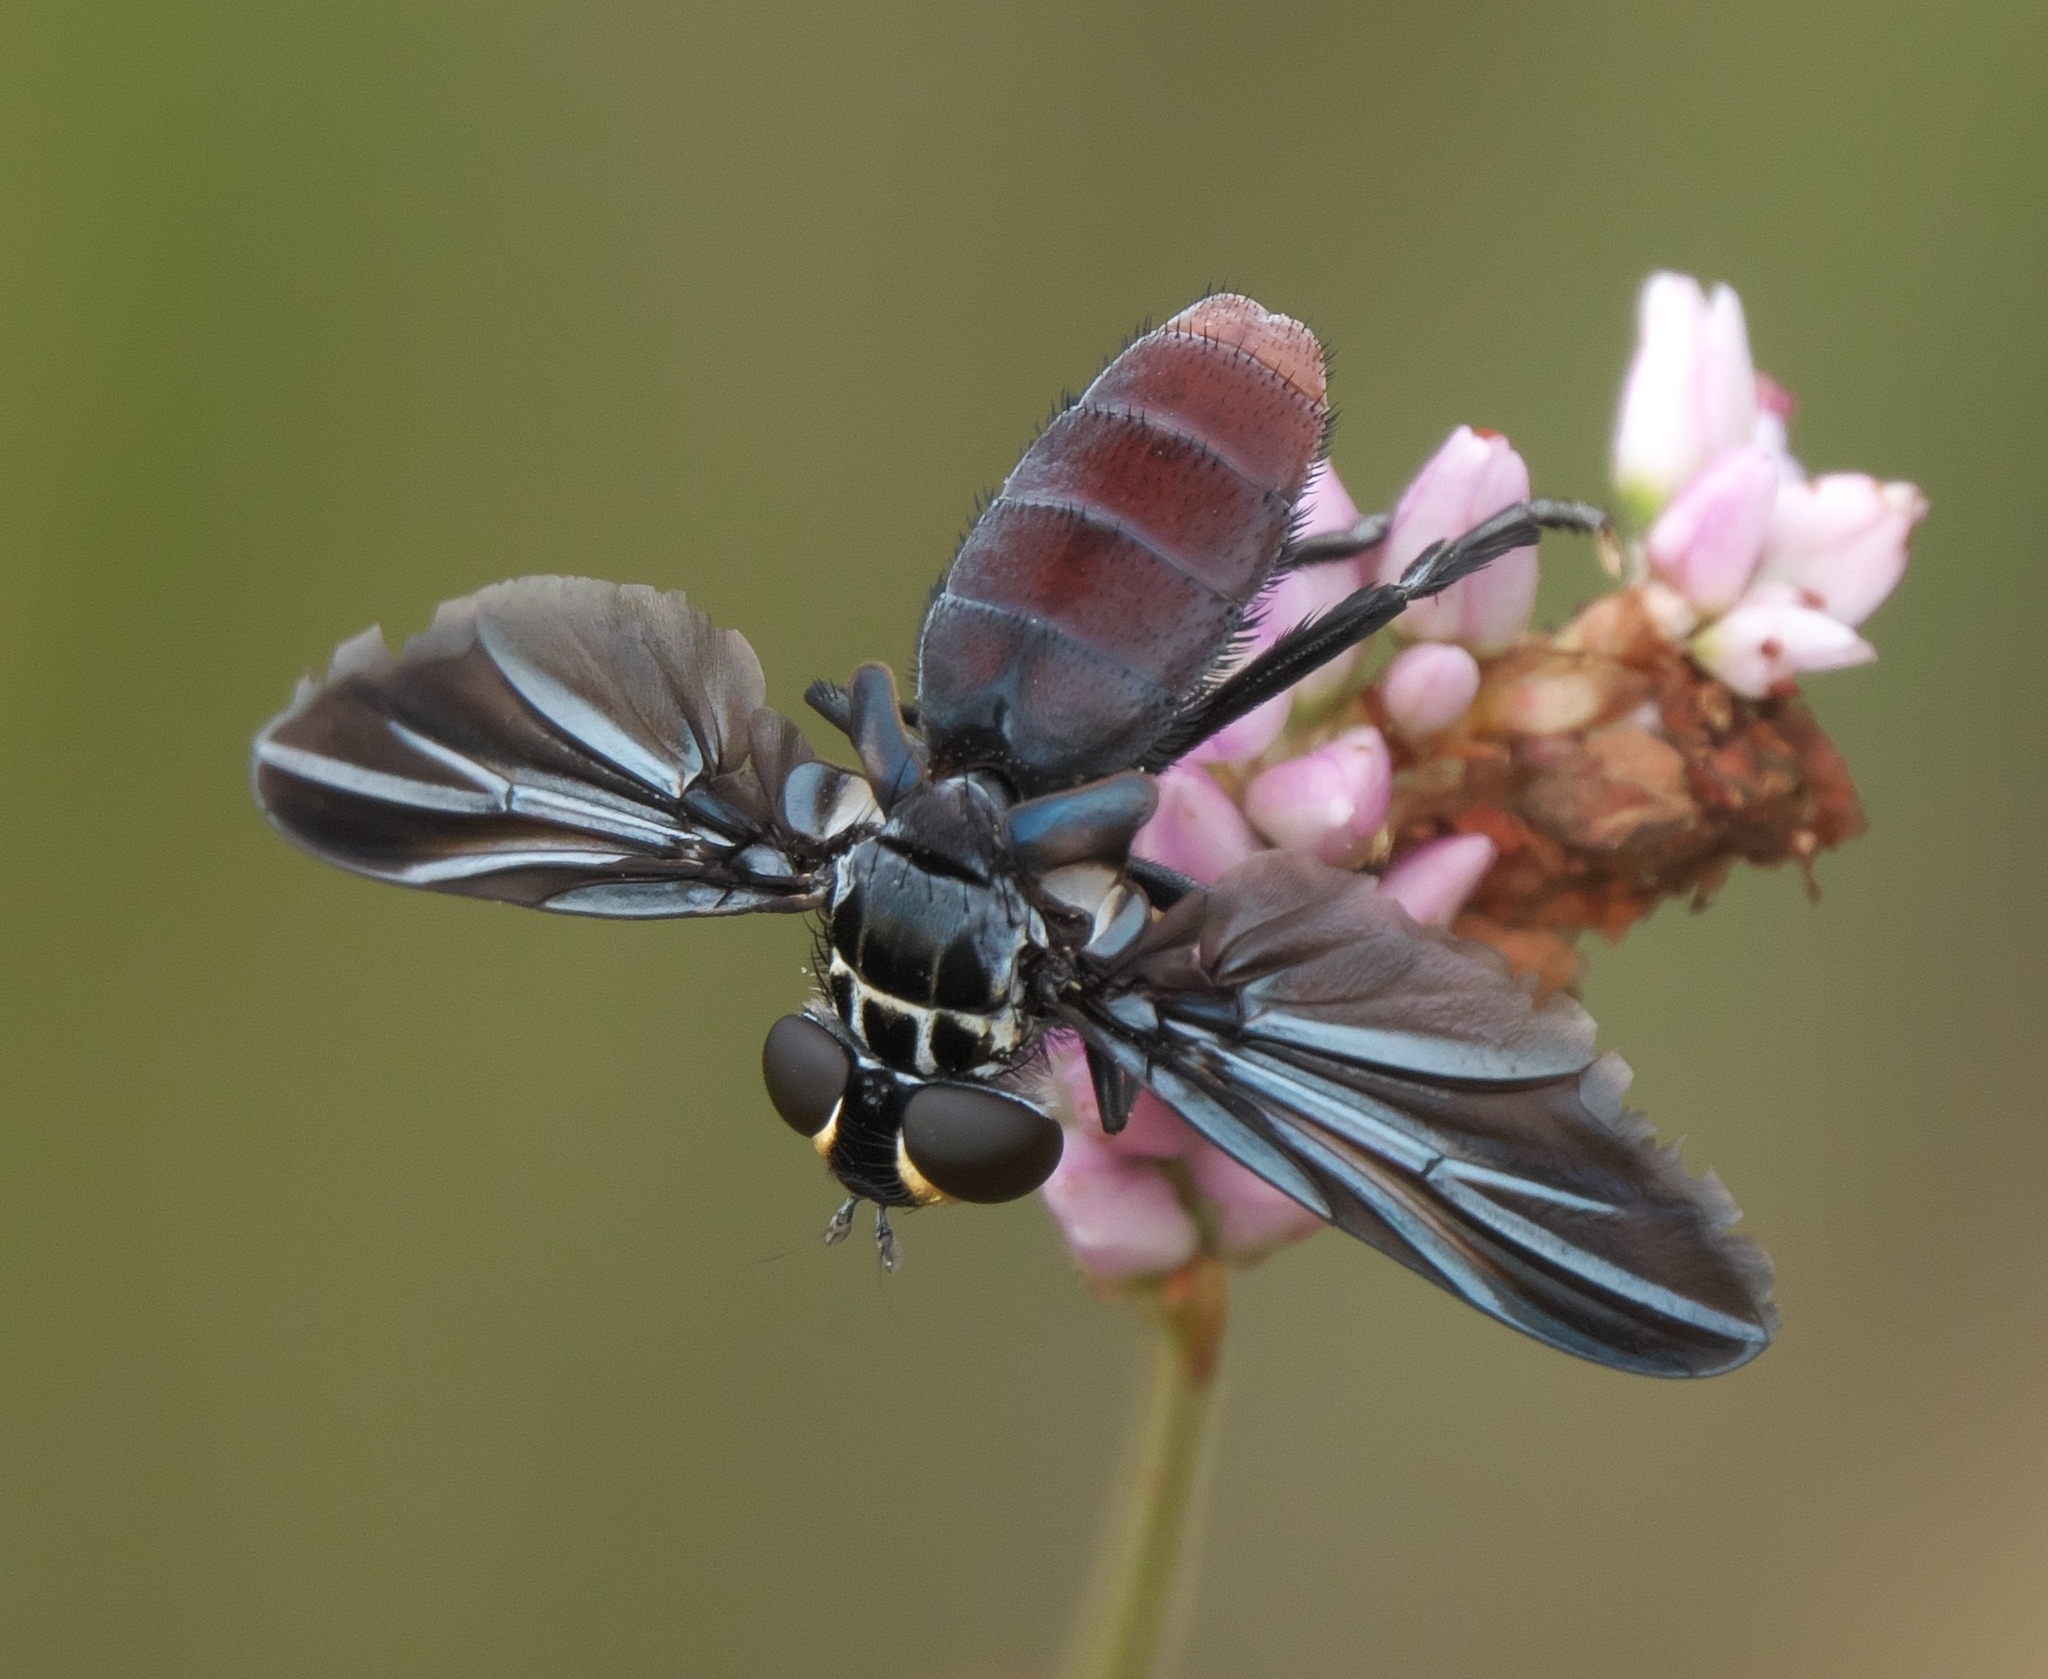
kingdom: Animalia
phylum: Arthropoda
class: Insecta
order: Diptera
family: Tachinidae
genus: Trichopoda
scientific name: Trichopoda lanipes
